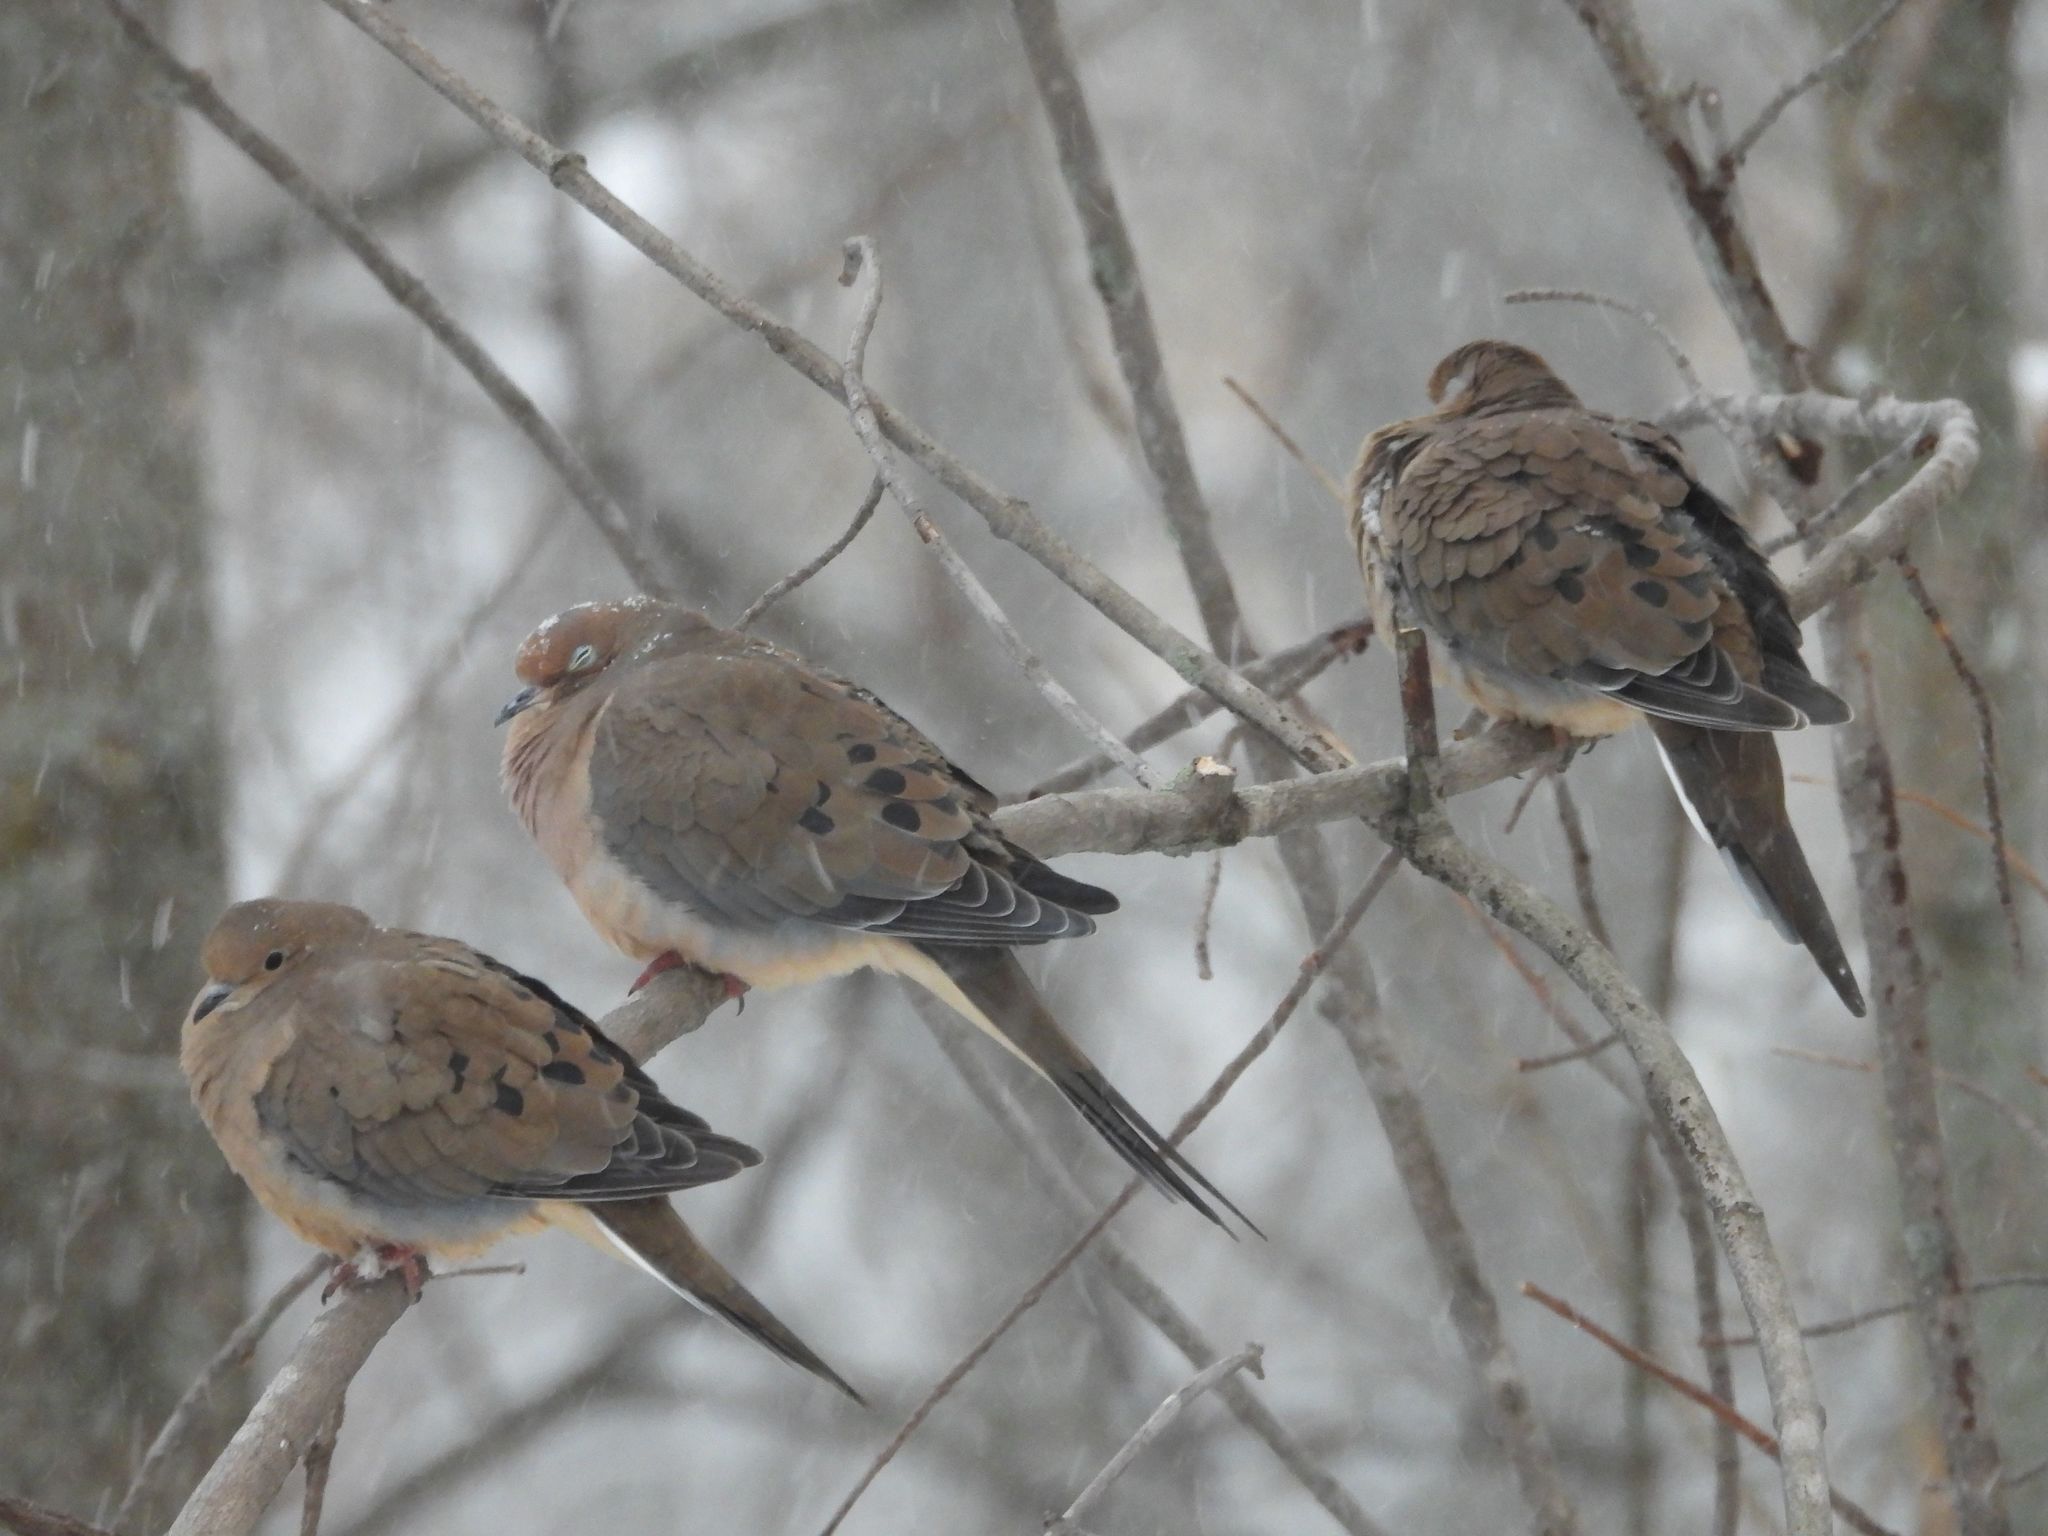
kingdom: Animalia
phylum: Chordata
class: Aves
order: Columbiformes
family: Columbidae
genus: Zenaida
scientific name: Zenaida macroura
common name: Mourning dove
